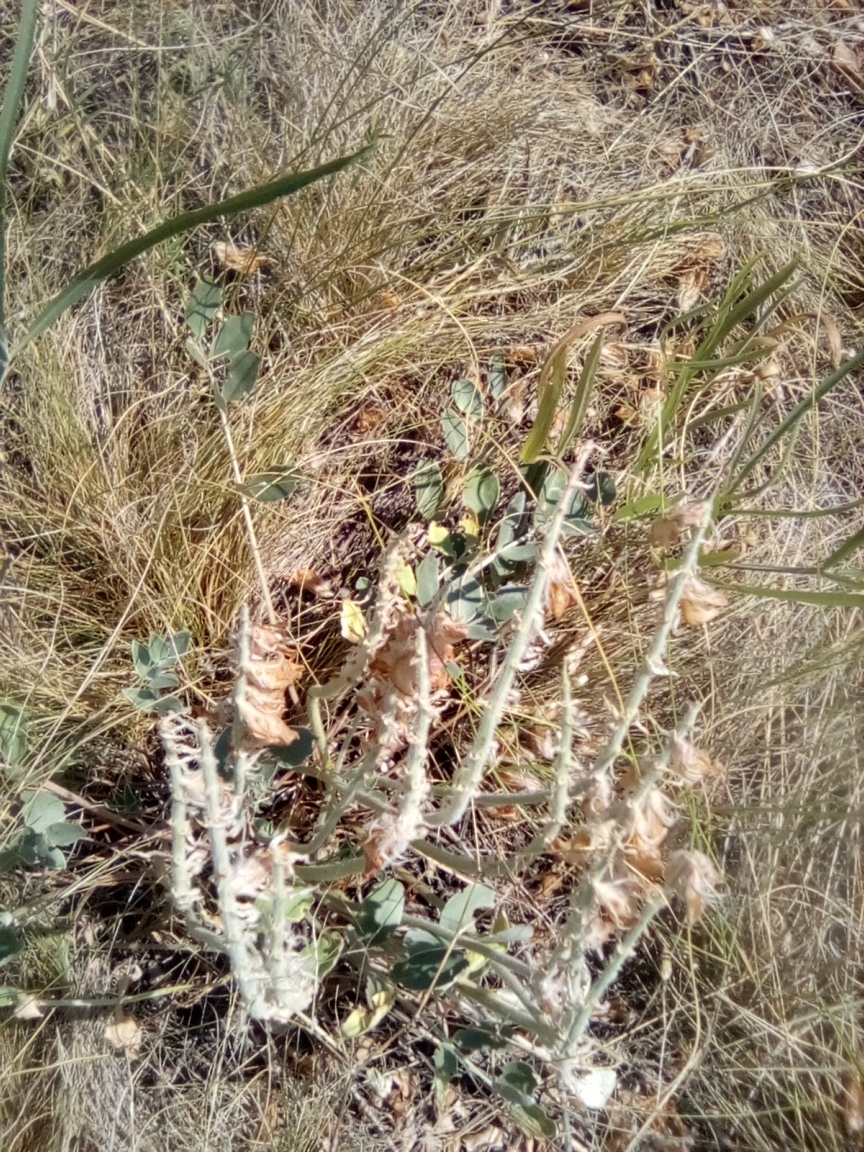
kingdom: Plantae
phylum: Tracheophyta
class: Magnoliopsida
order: Fabales
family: Fabaceae
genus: Hedysarum
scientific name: Hedysarum argyrophyllum
